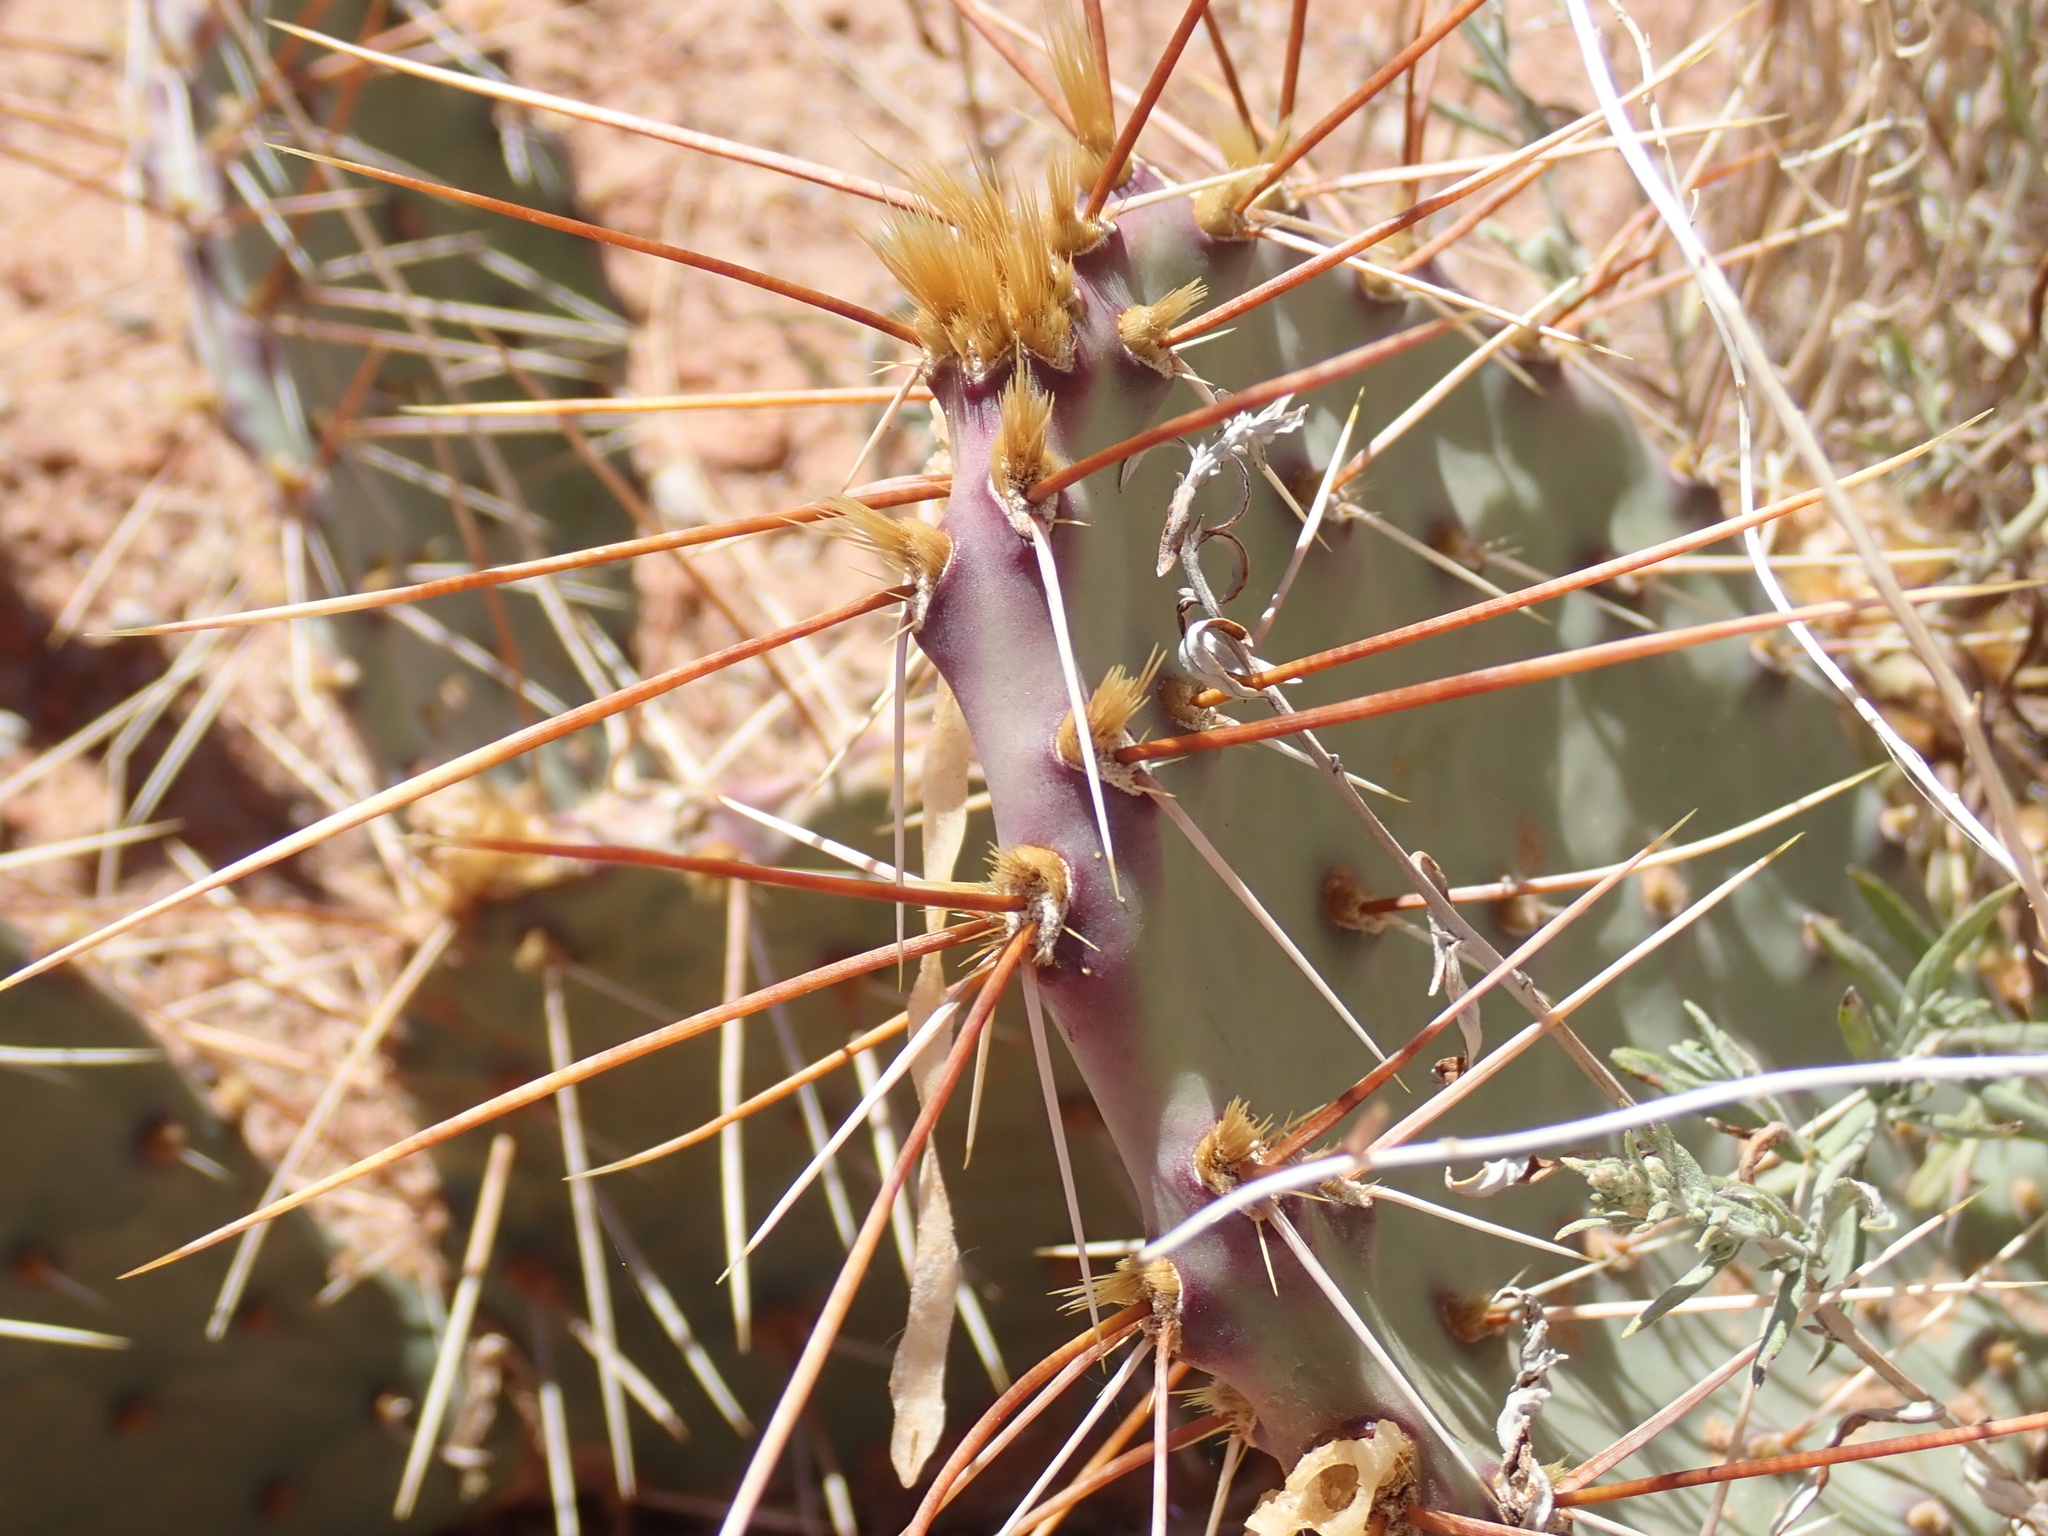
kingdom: Plantae
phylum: Tracheophyta
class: Magnoliopsida
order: Caryophyllales
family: Cactaceae
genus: Opuntia
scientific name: Opuntia phaeacantha
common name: New mexico prickly-pear
